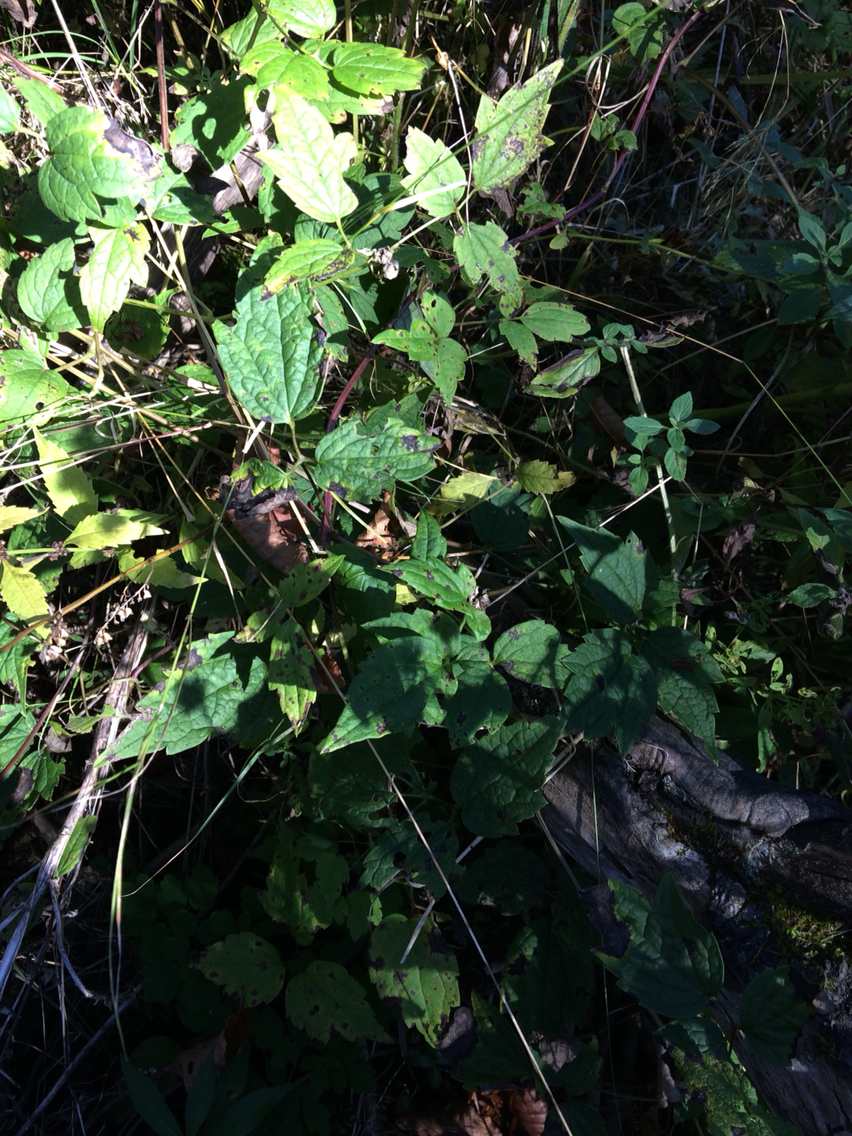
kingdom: Plantae
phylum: Tracheophyta
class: Magnoliopsida
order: Ranunculales
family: Ranunculaceae
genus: Clematis
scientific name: Clematis virginiana
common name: Virgin's-bower
